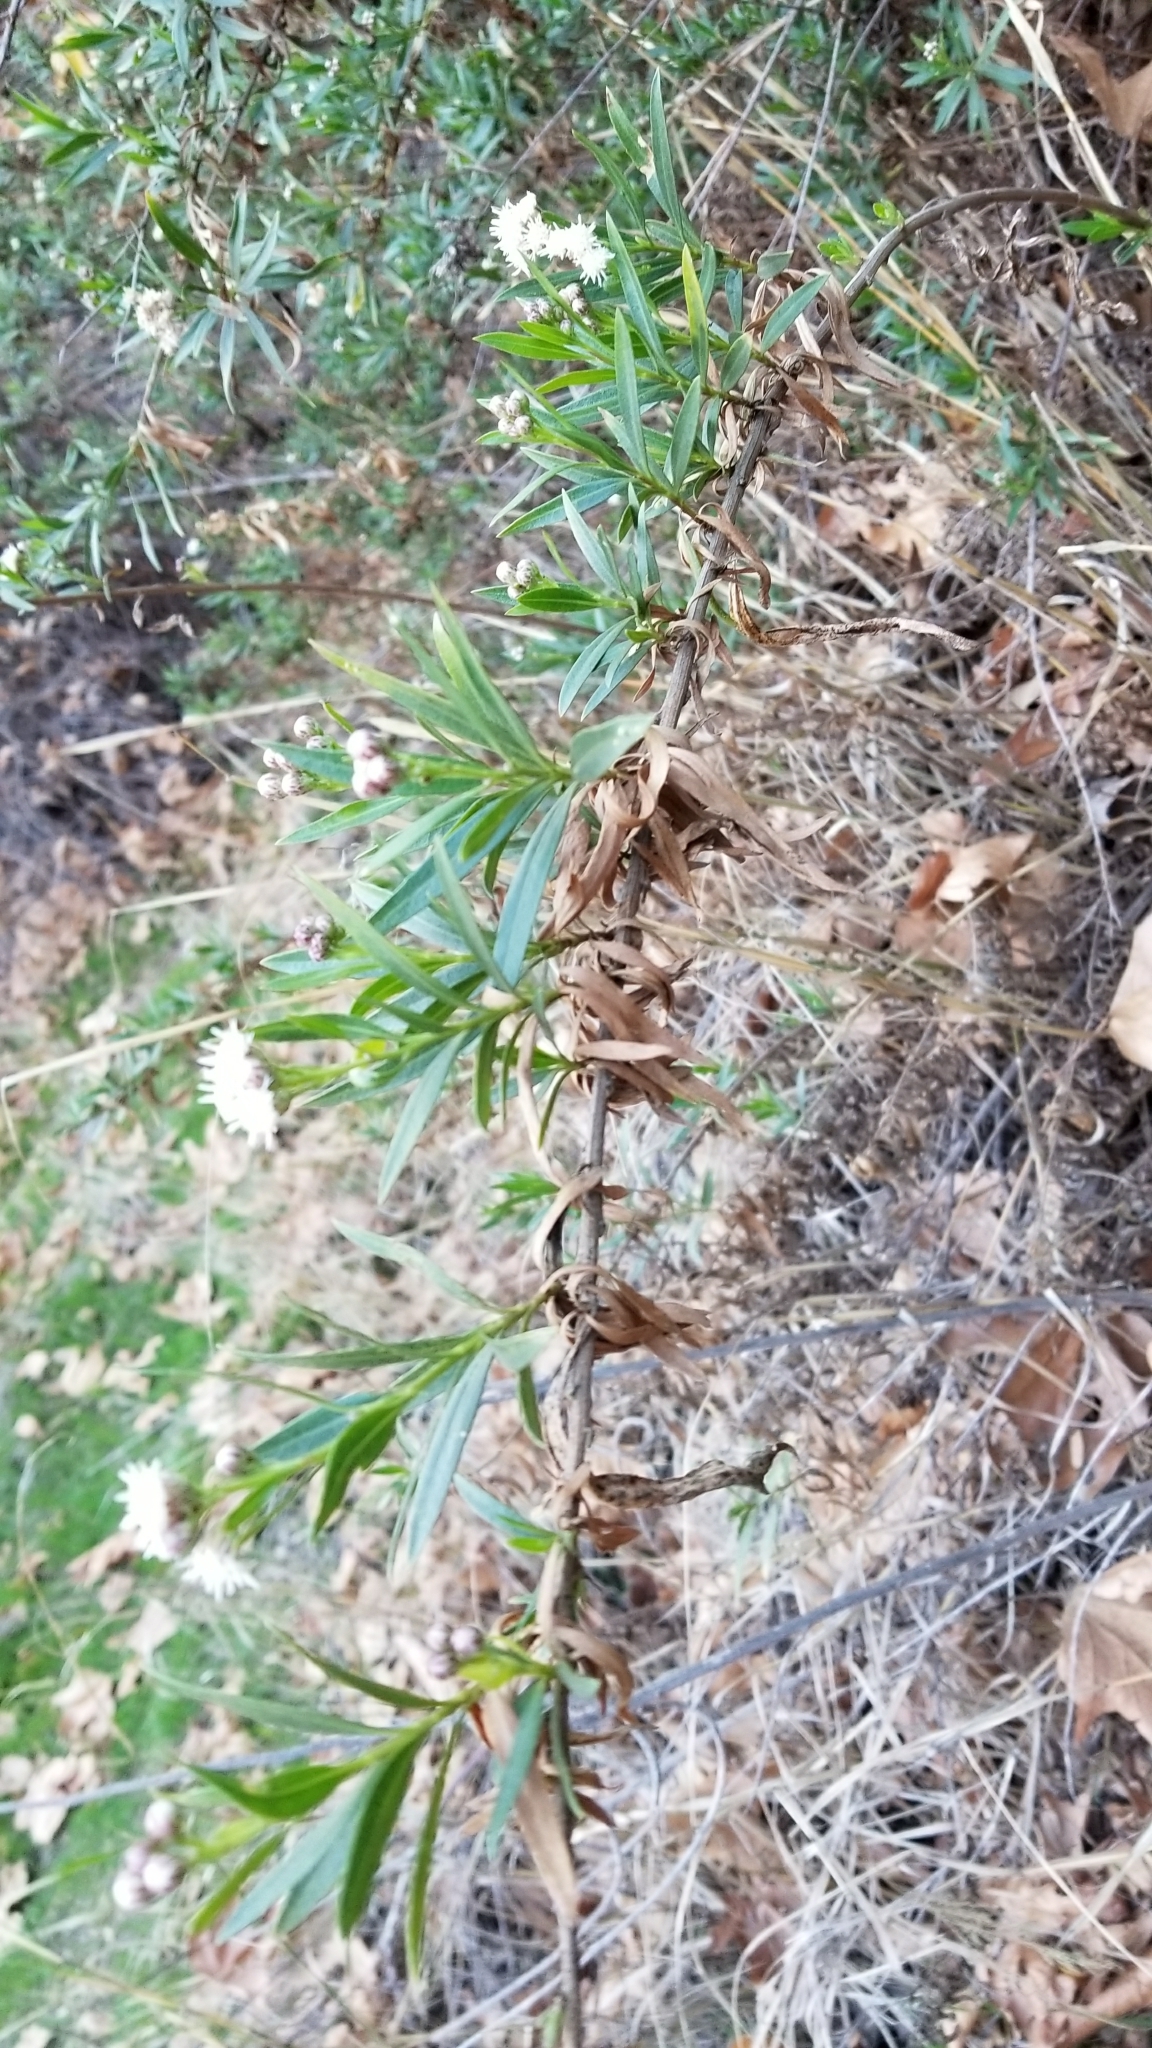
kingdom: Plantae
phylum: Tracheophyta
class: Magnoliopsida
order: Asterales
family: Asteraceae
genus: Baccharis
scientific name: Baccharis salicifolia
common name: Sticky baccharis
